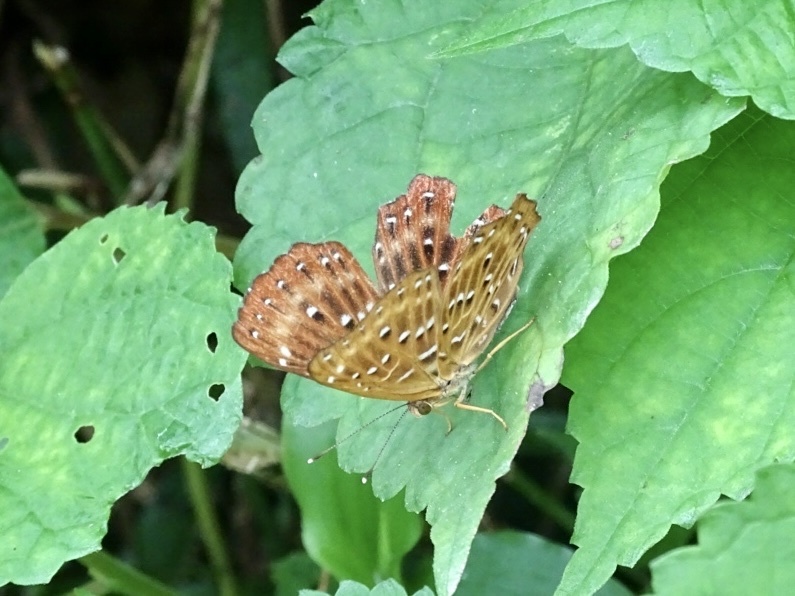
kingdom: Animalia
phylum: Arthropoda
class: Insecta
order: Lepidoptera
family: Riodinidae
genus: Zemeros
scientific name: Zemeros flegyas
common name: Punchinello
